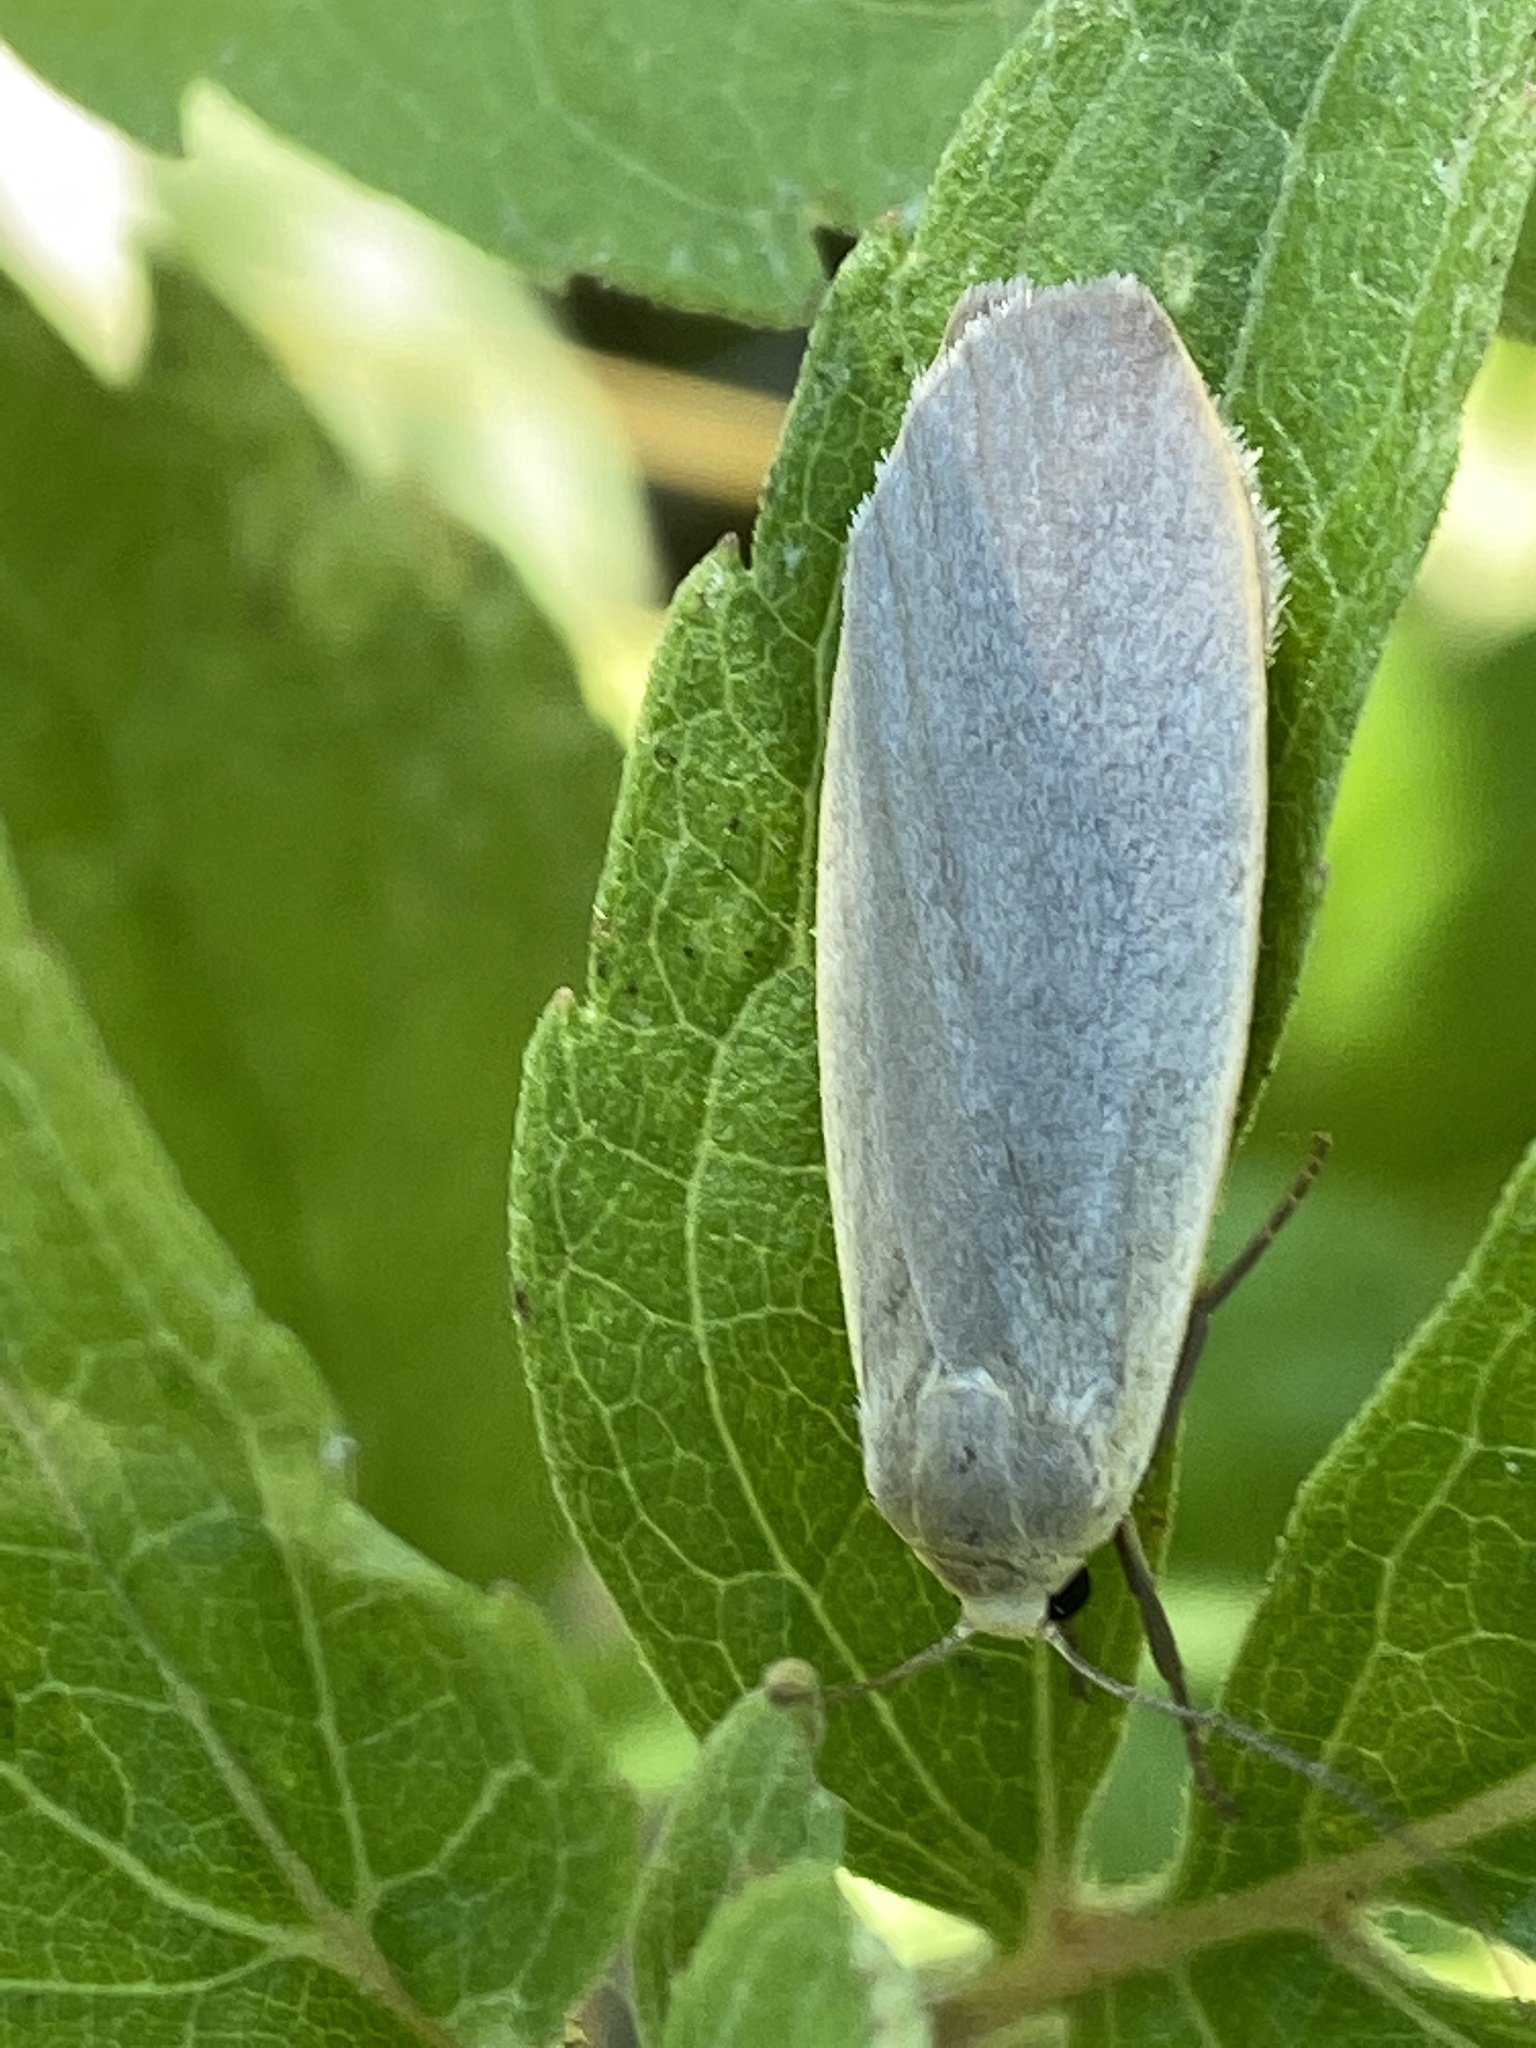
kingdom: Animalia
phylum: Arthropoda
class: Insecta
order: Lepidoptera
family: Erebidae
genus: Collita
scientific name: Collita griseola
